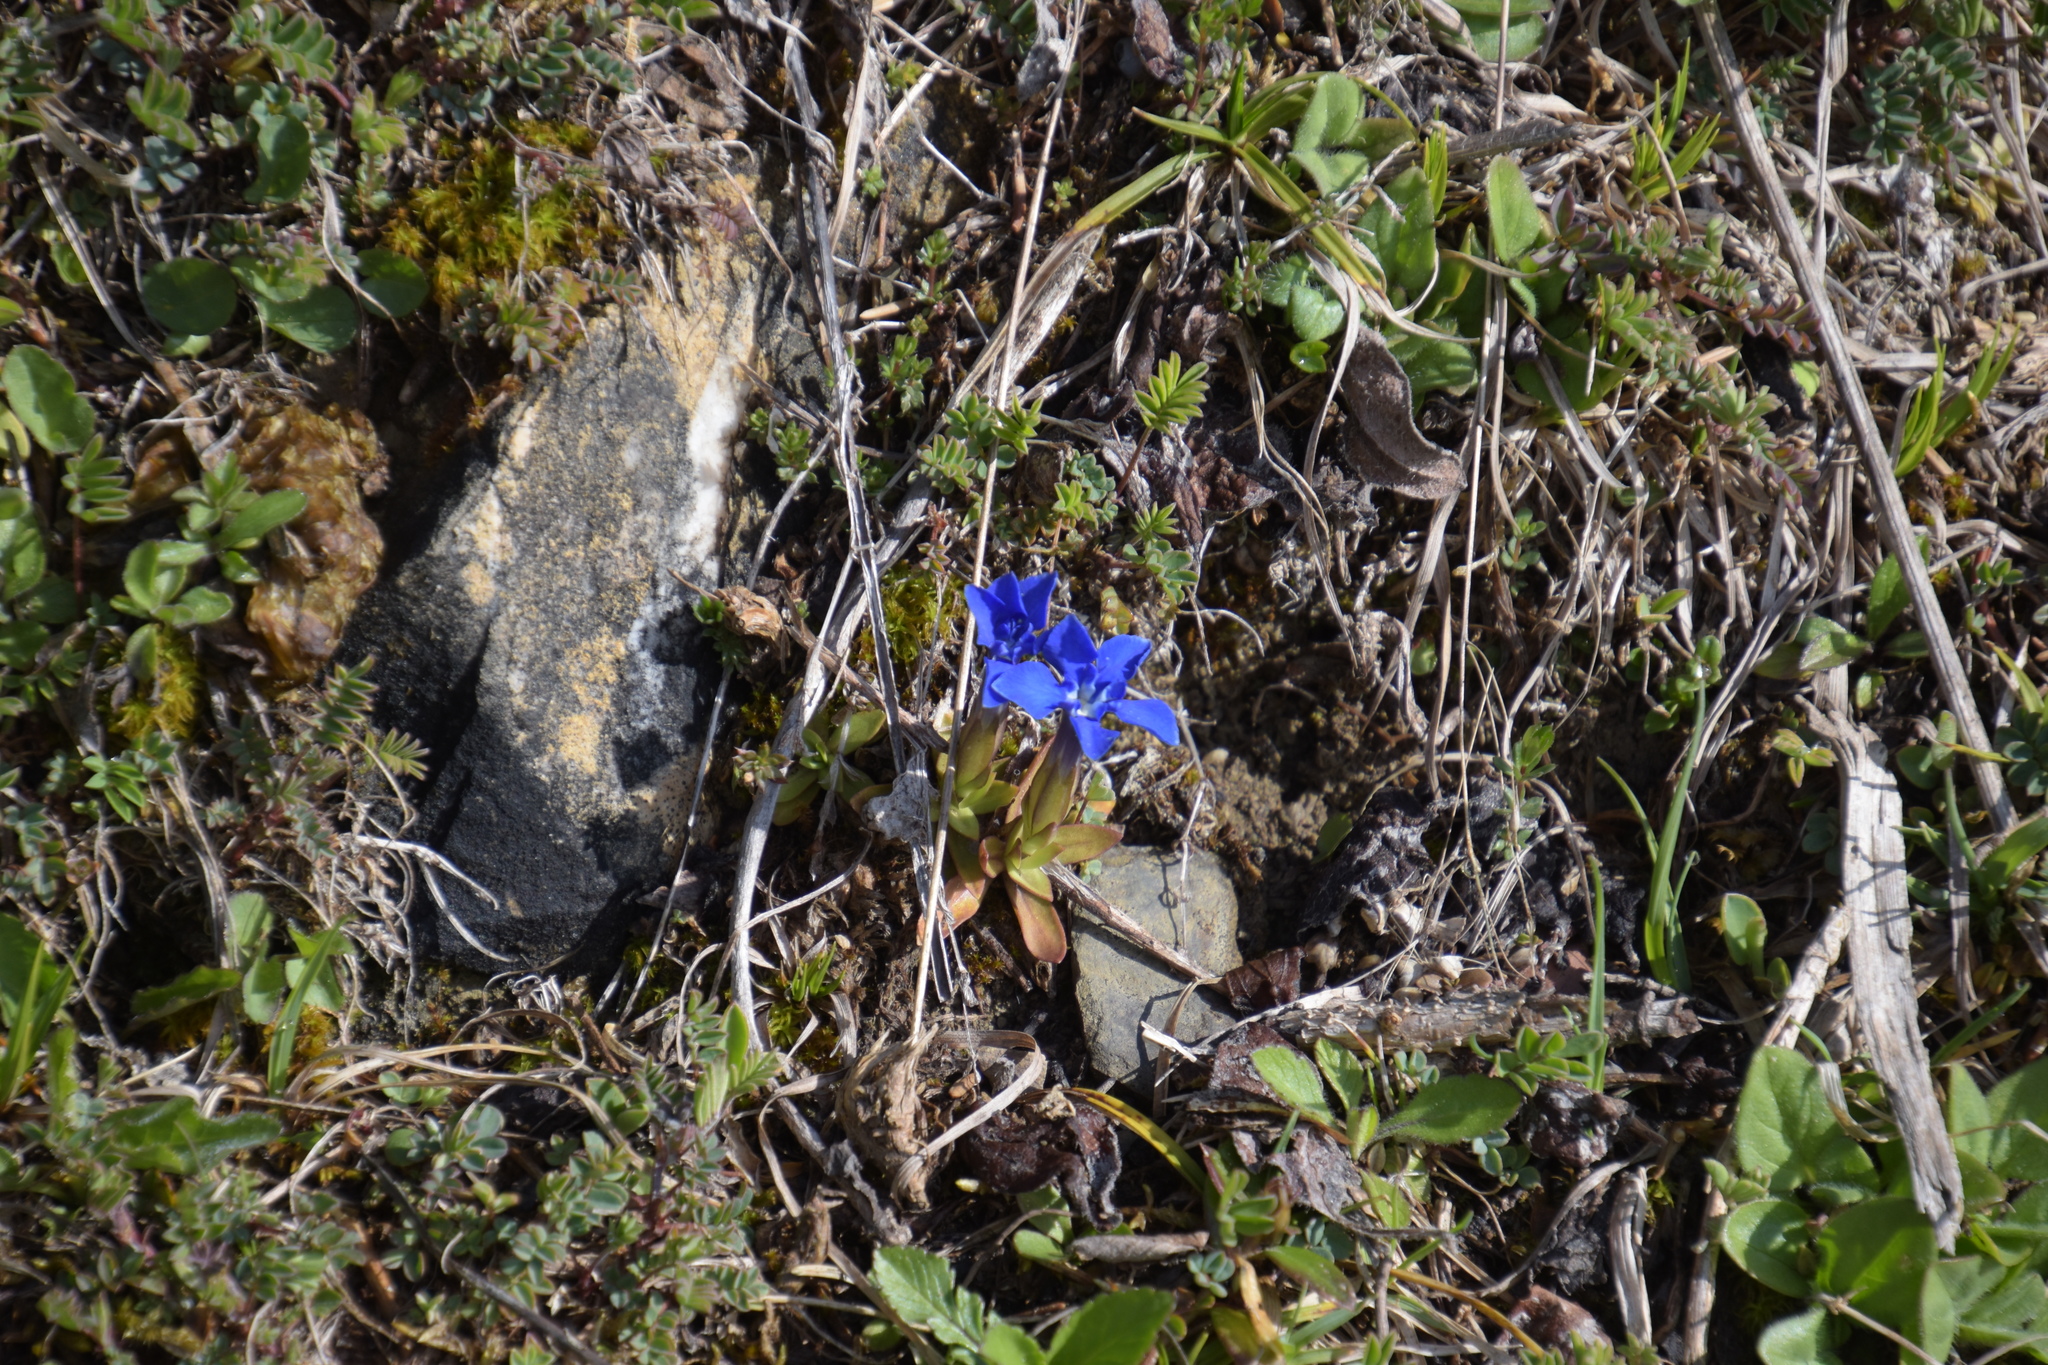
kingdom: Plantae
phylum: Tracheophyta
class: Magnoliopsida
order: Gentianales
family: Gentianaceae
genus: Gentiana
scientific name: Gentiana verna
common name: Spring gentian
